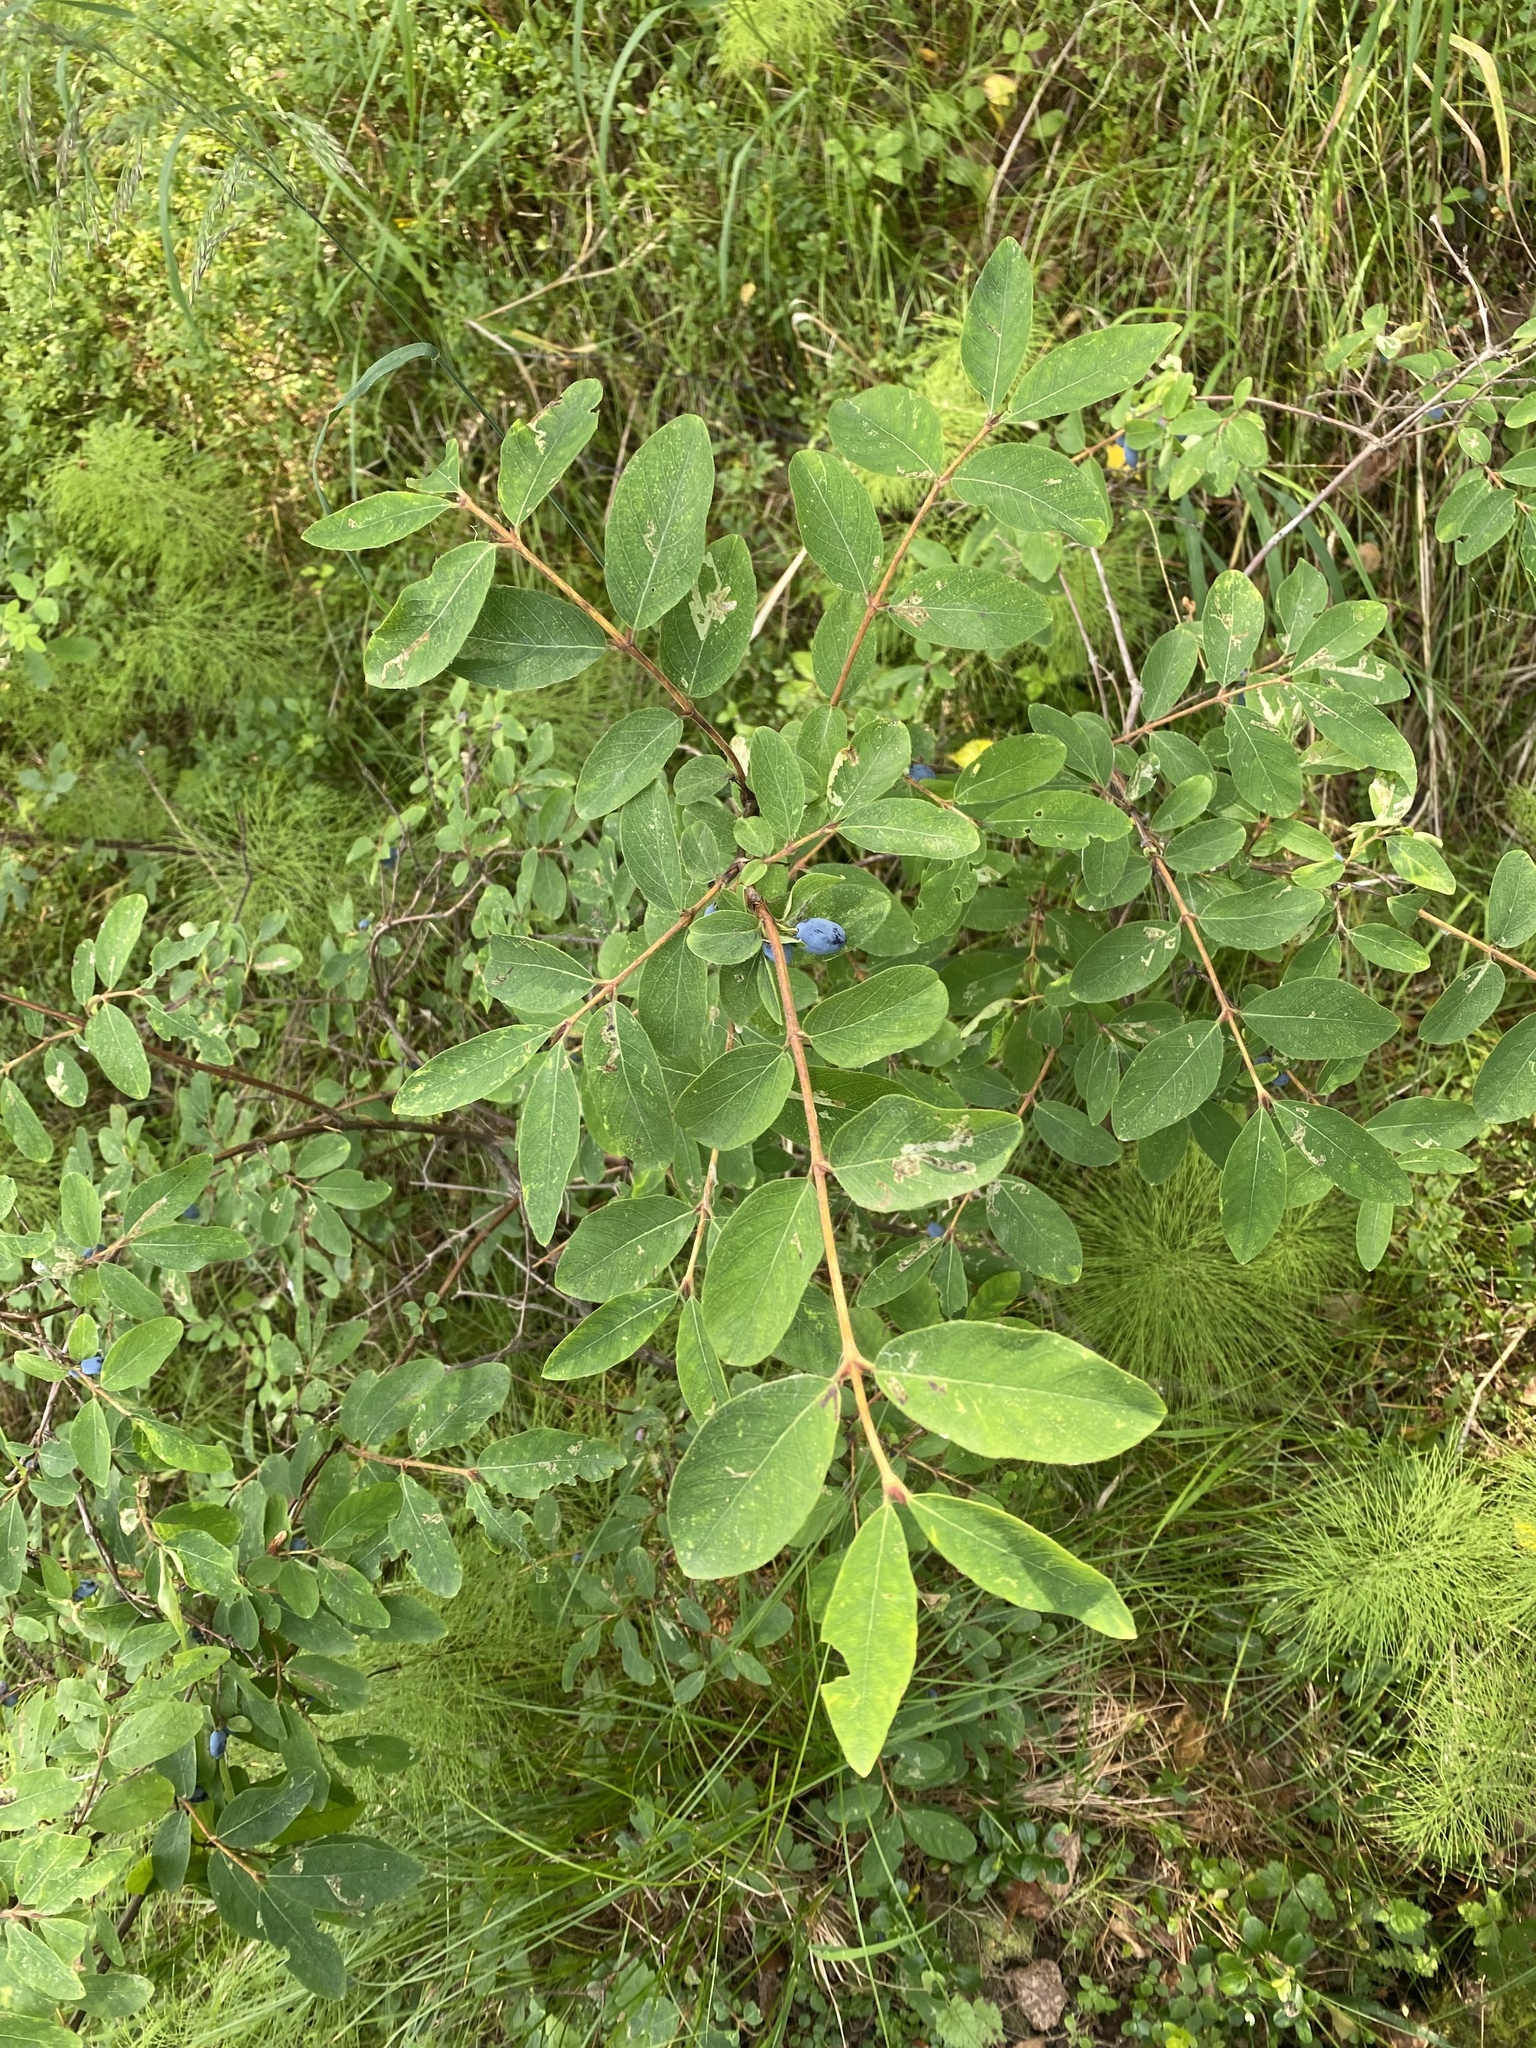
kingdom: Plantae
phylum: Tracheophyta
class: Magnoliopsida
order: Dipsacales
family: Caprifoliaceae
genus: Lonicera
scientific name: Lonicera caerulea
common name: Blue honeysuckle
